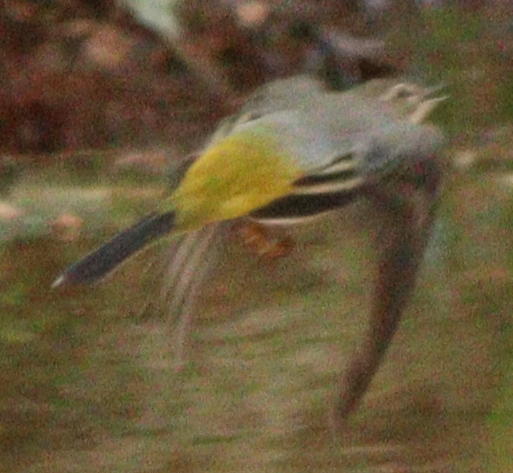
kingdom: Animalia
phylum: Chordata
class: Aves
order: Passeriformes
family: Motacillidae
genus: Motacilla
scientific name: Motacilla cinerea
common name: Grey wagtail
